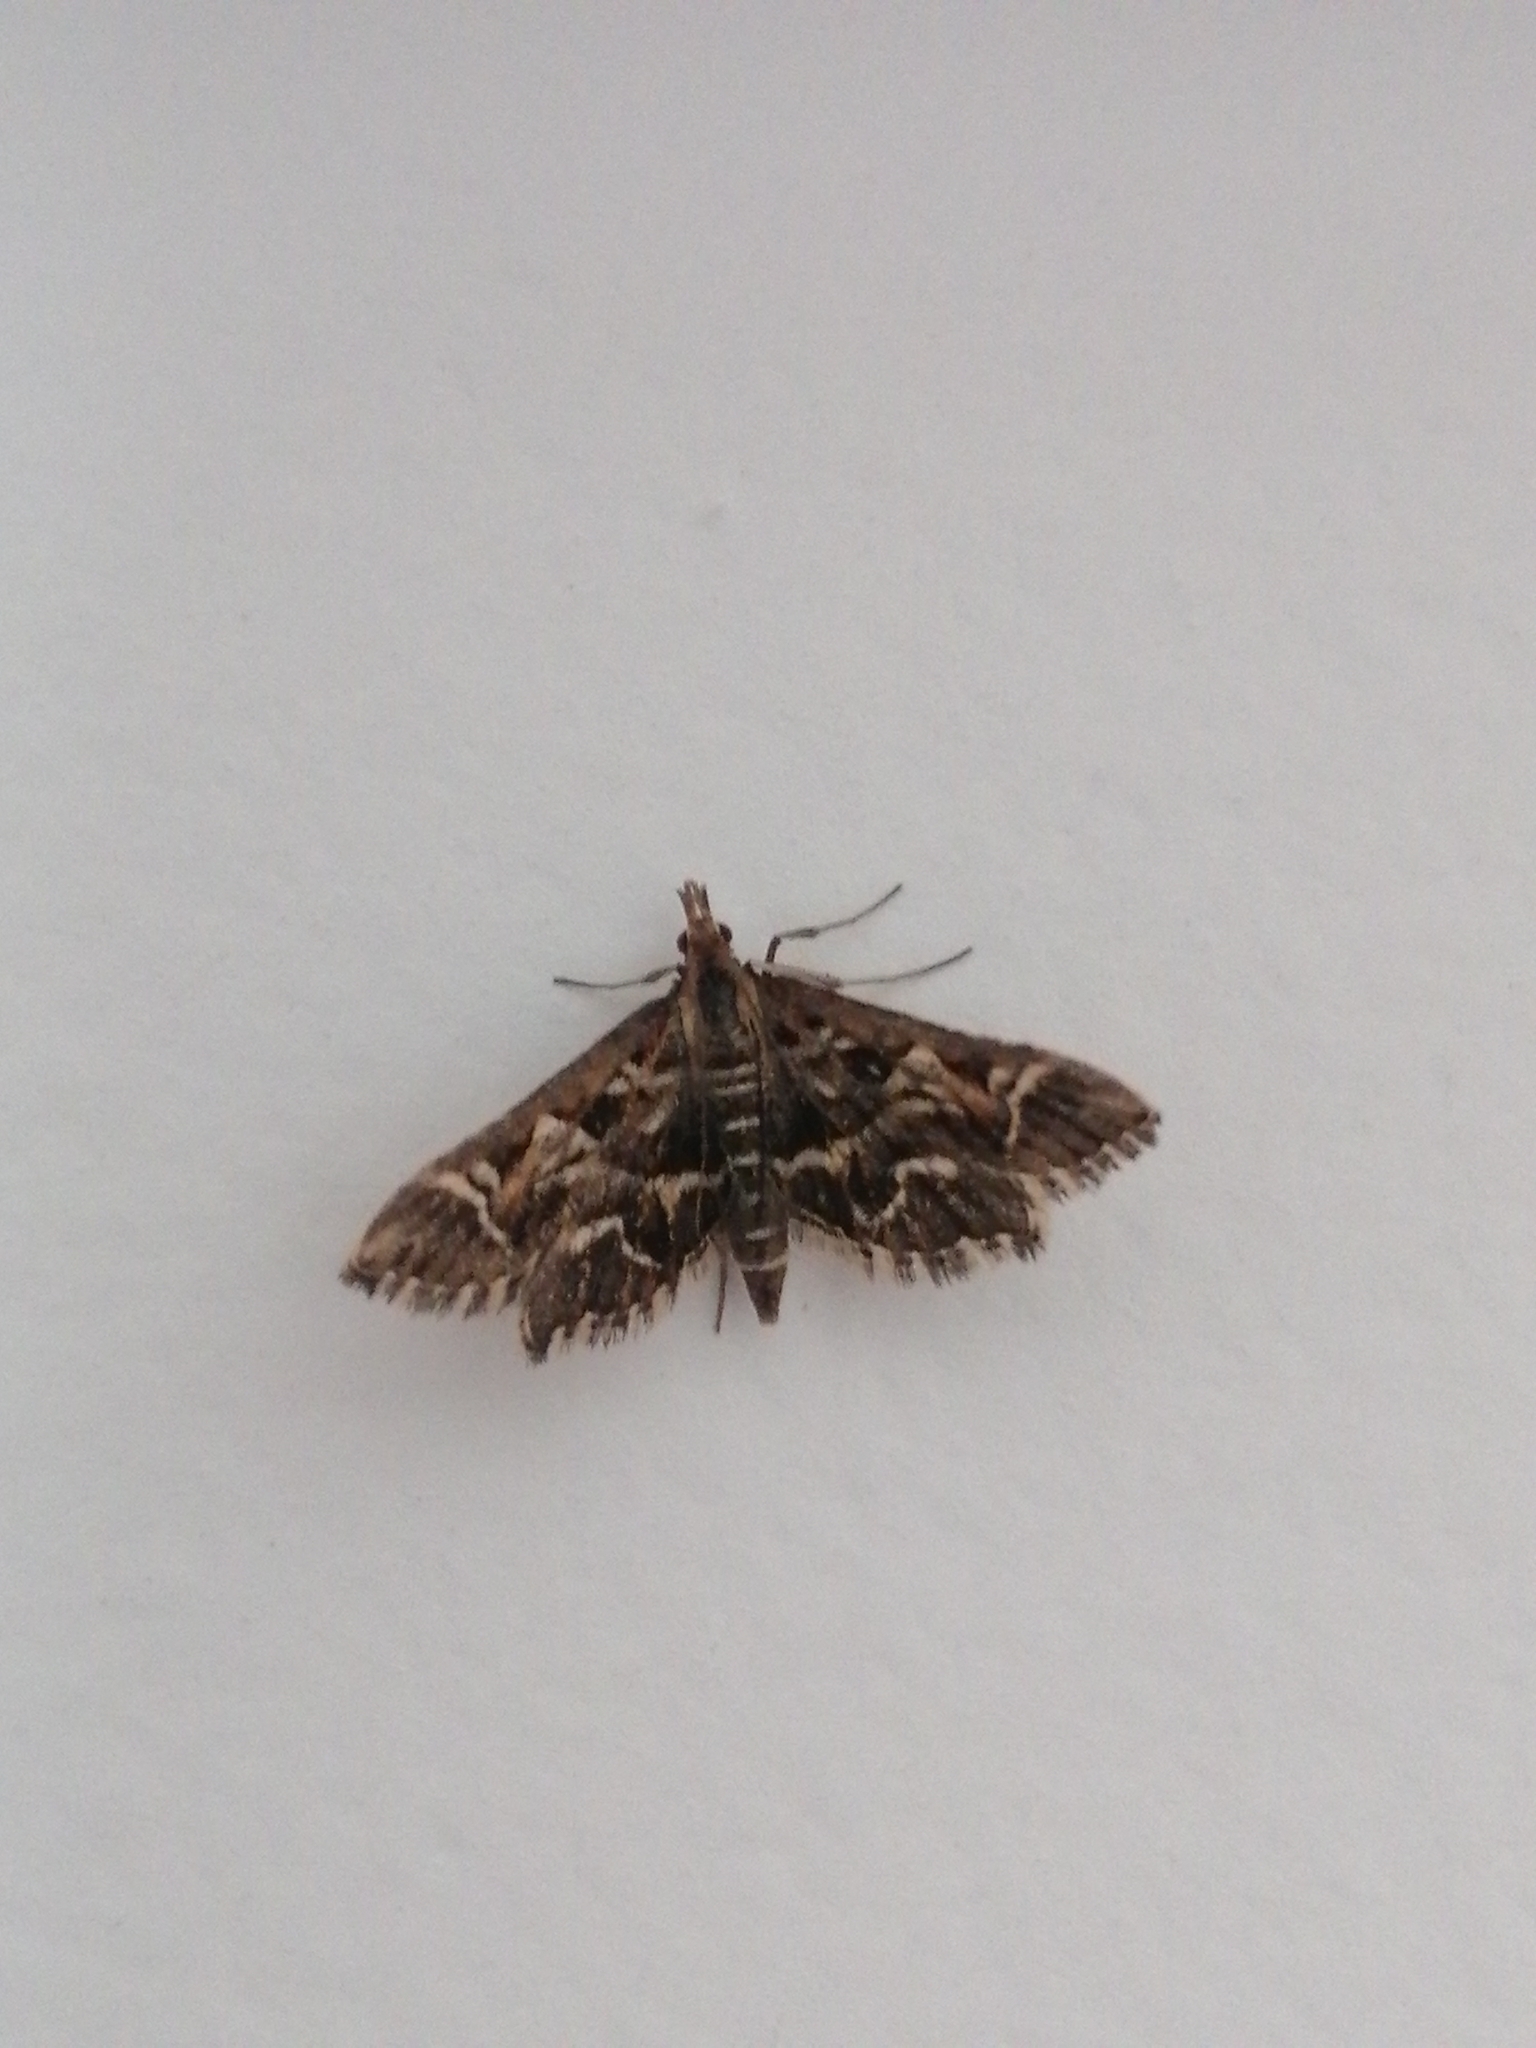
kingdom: Animalia
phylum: Arthropoda
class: Insecta
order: Lepidoptera
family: Crambidae
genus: Diasemia
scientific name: Diasemia reticularis
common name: Lettered china-mark
